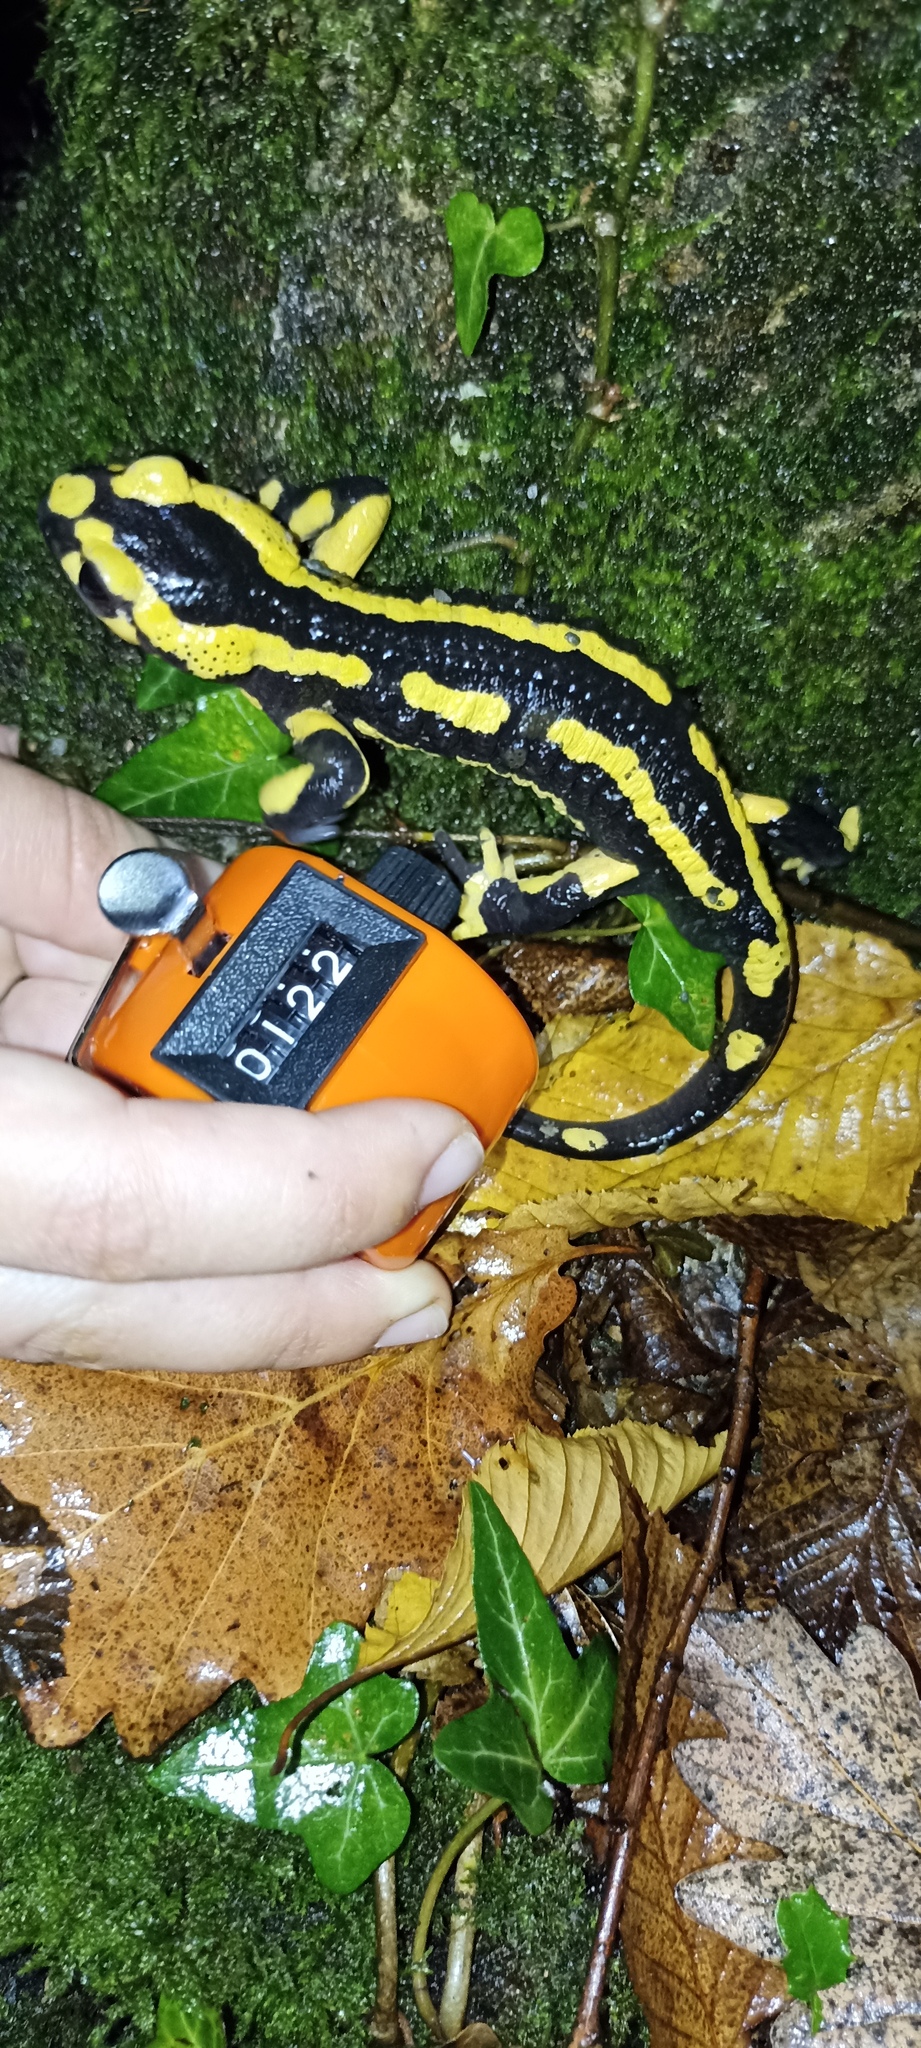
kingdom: Animalia
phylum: Chordata
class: Amphibia
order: Caudata
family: Salamandridae
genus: Salamandra
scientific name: Salamandra salamandra
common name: Fire salamander
